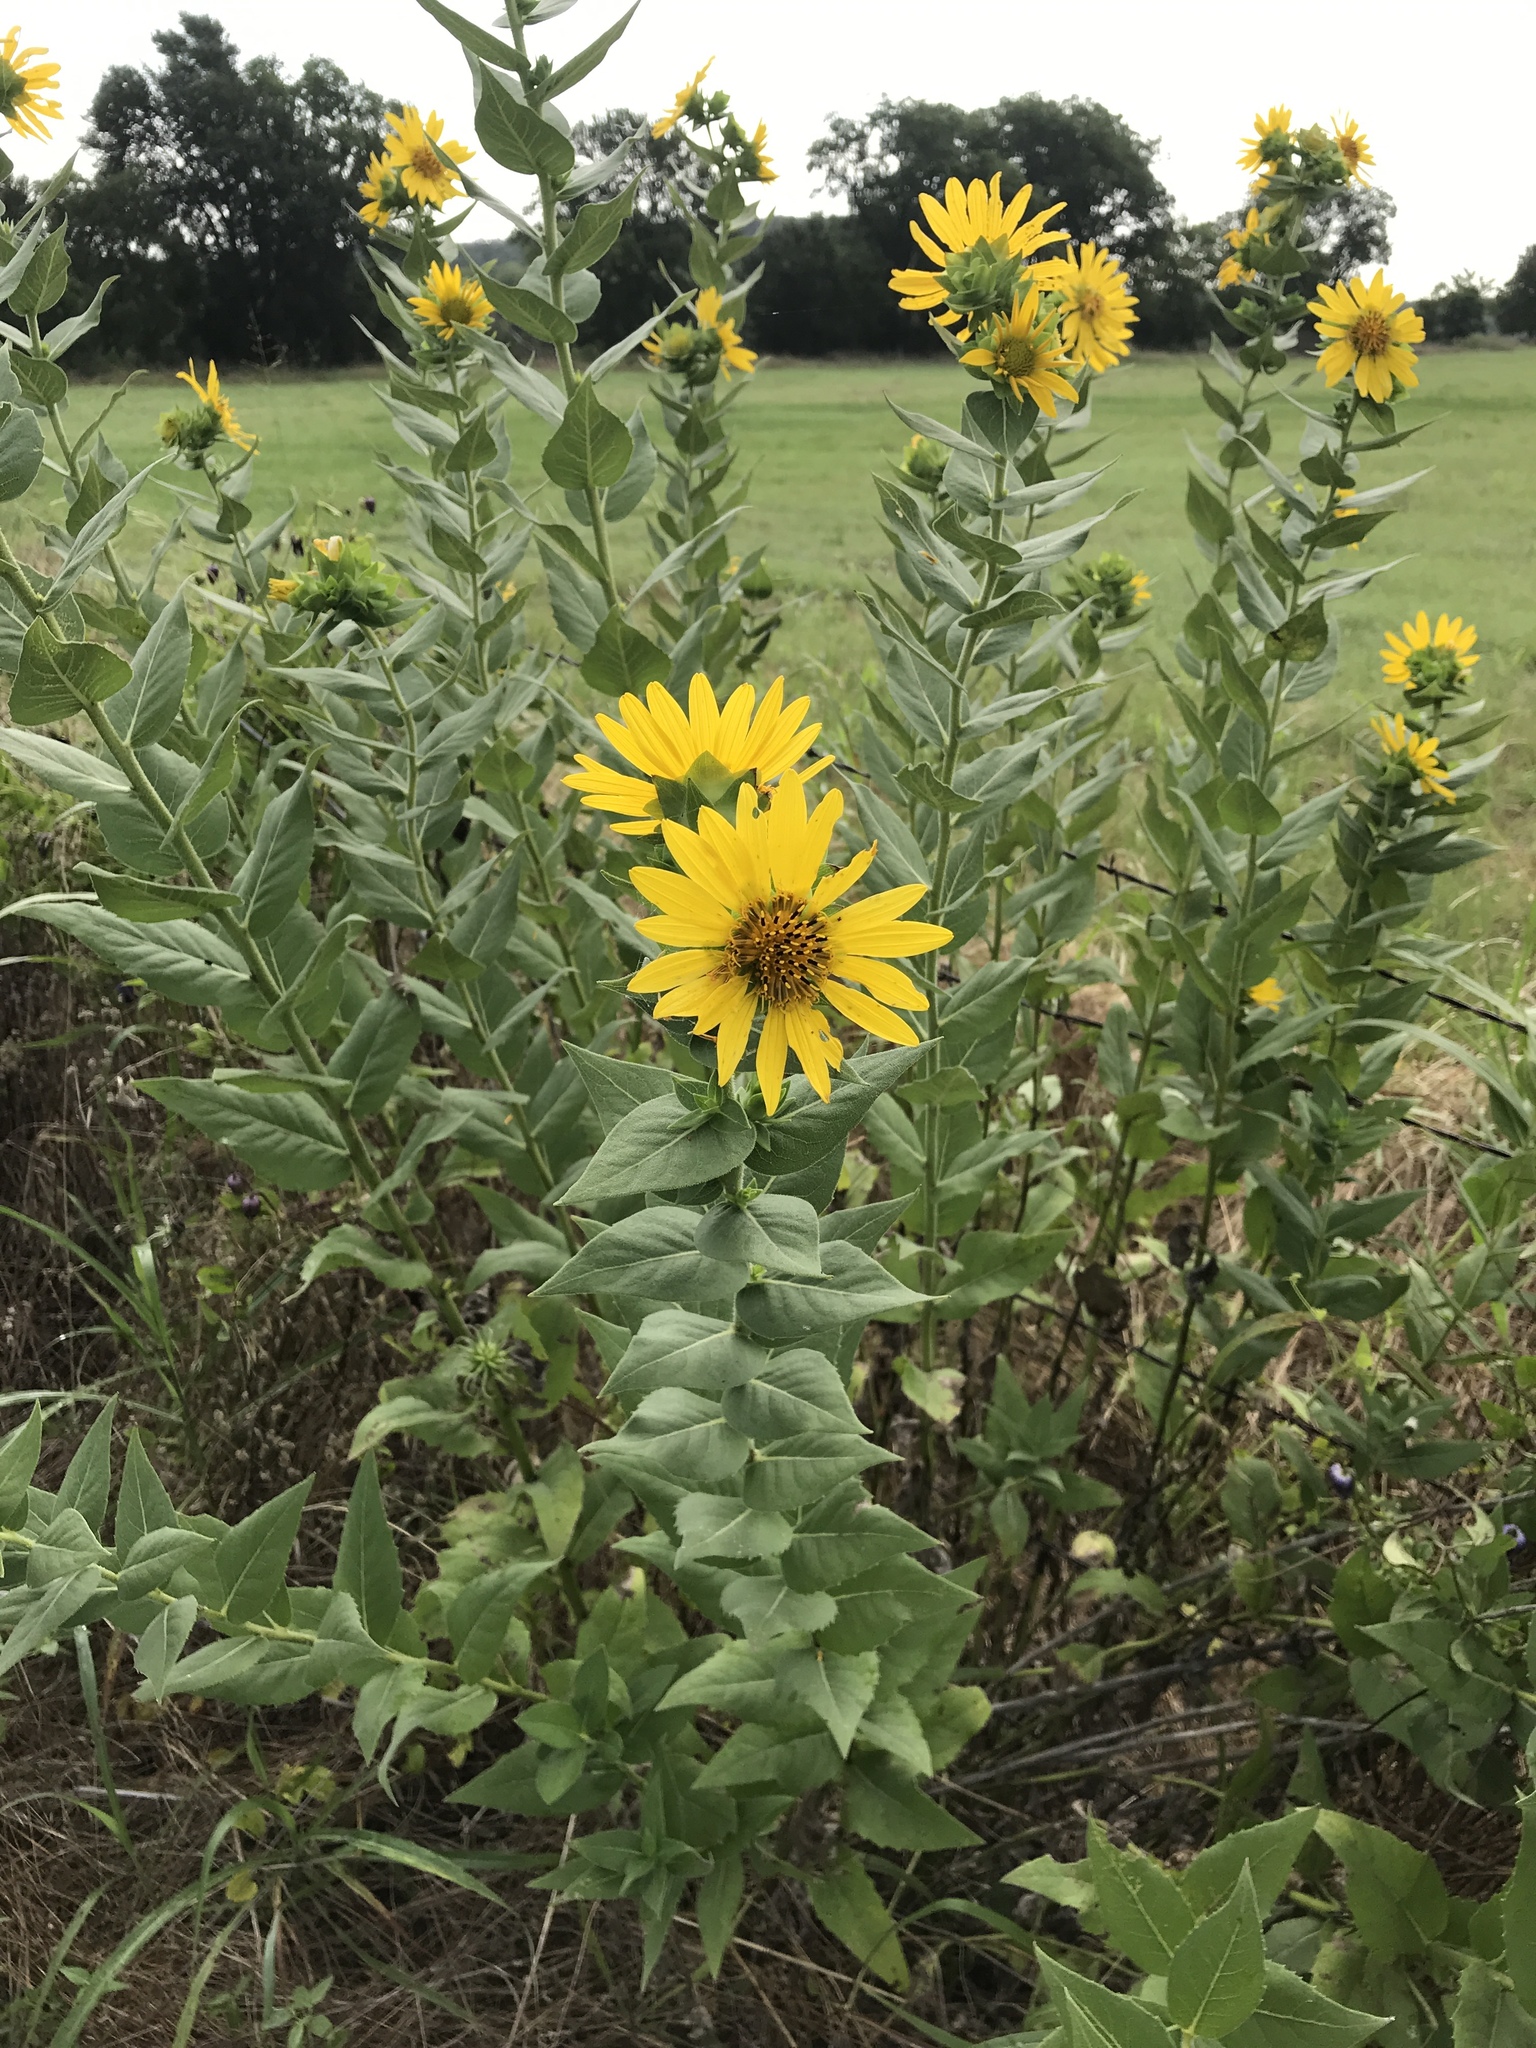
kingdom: Plantae
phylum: Tracheophyta
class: Magnoliopsida
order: Asterales
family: Asteraceae
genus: Silphium
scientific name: Silphium radula
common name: Roughleaf rosinweed
